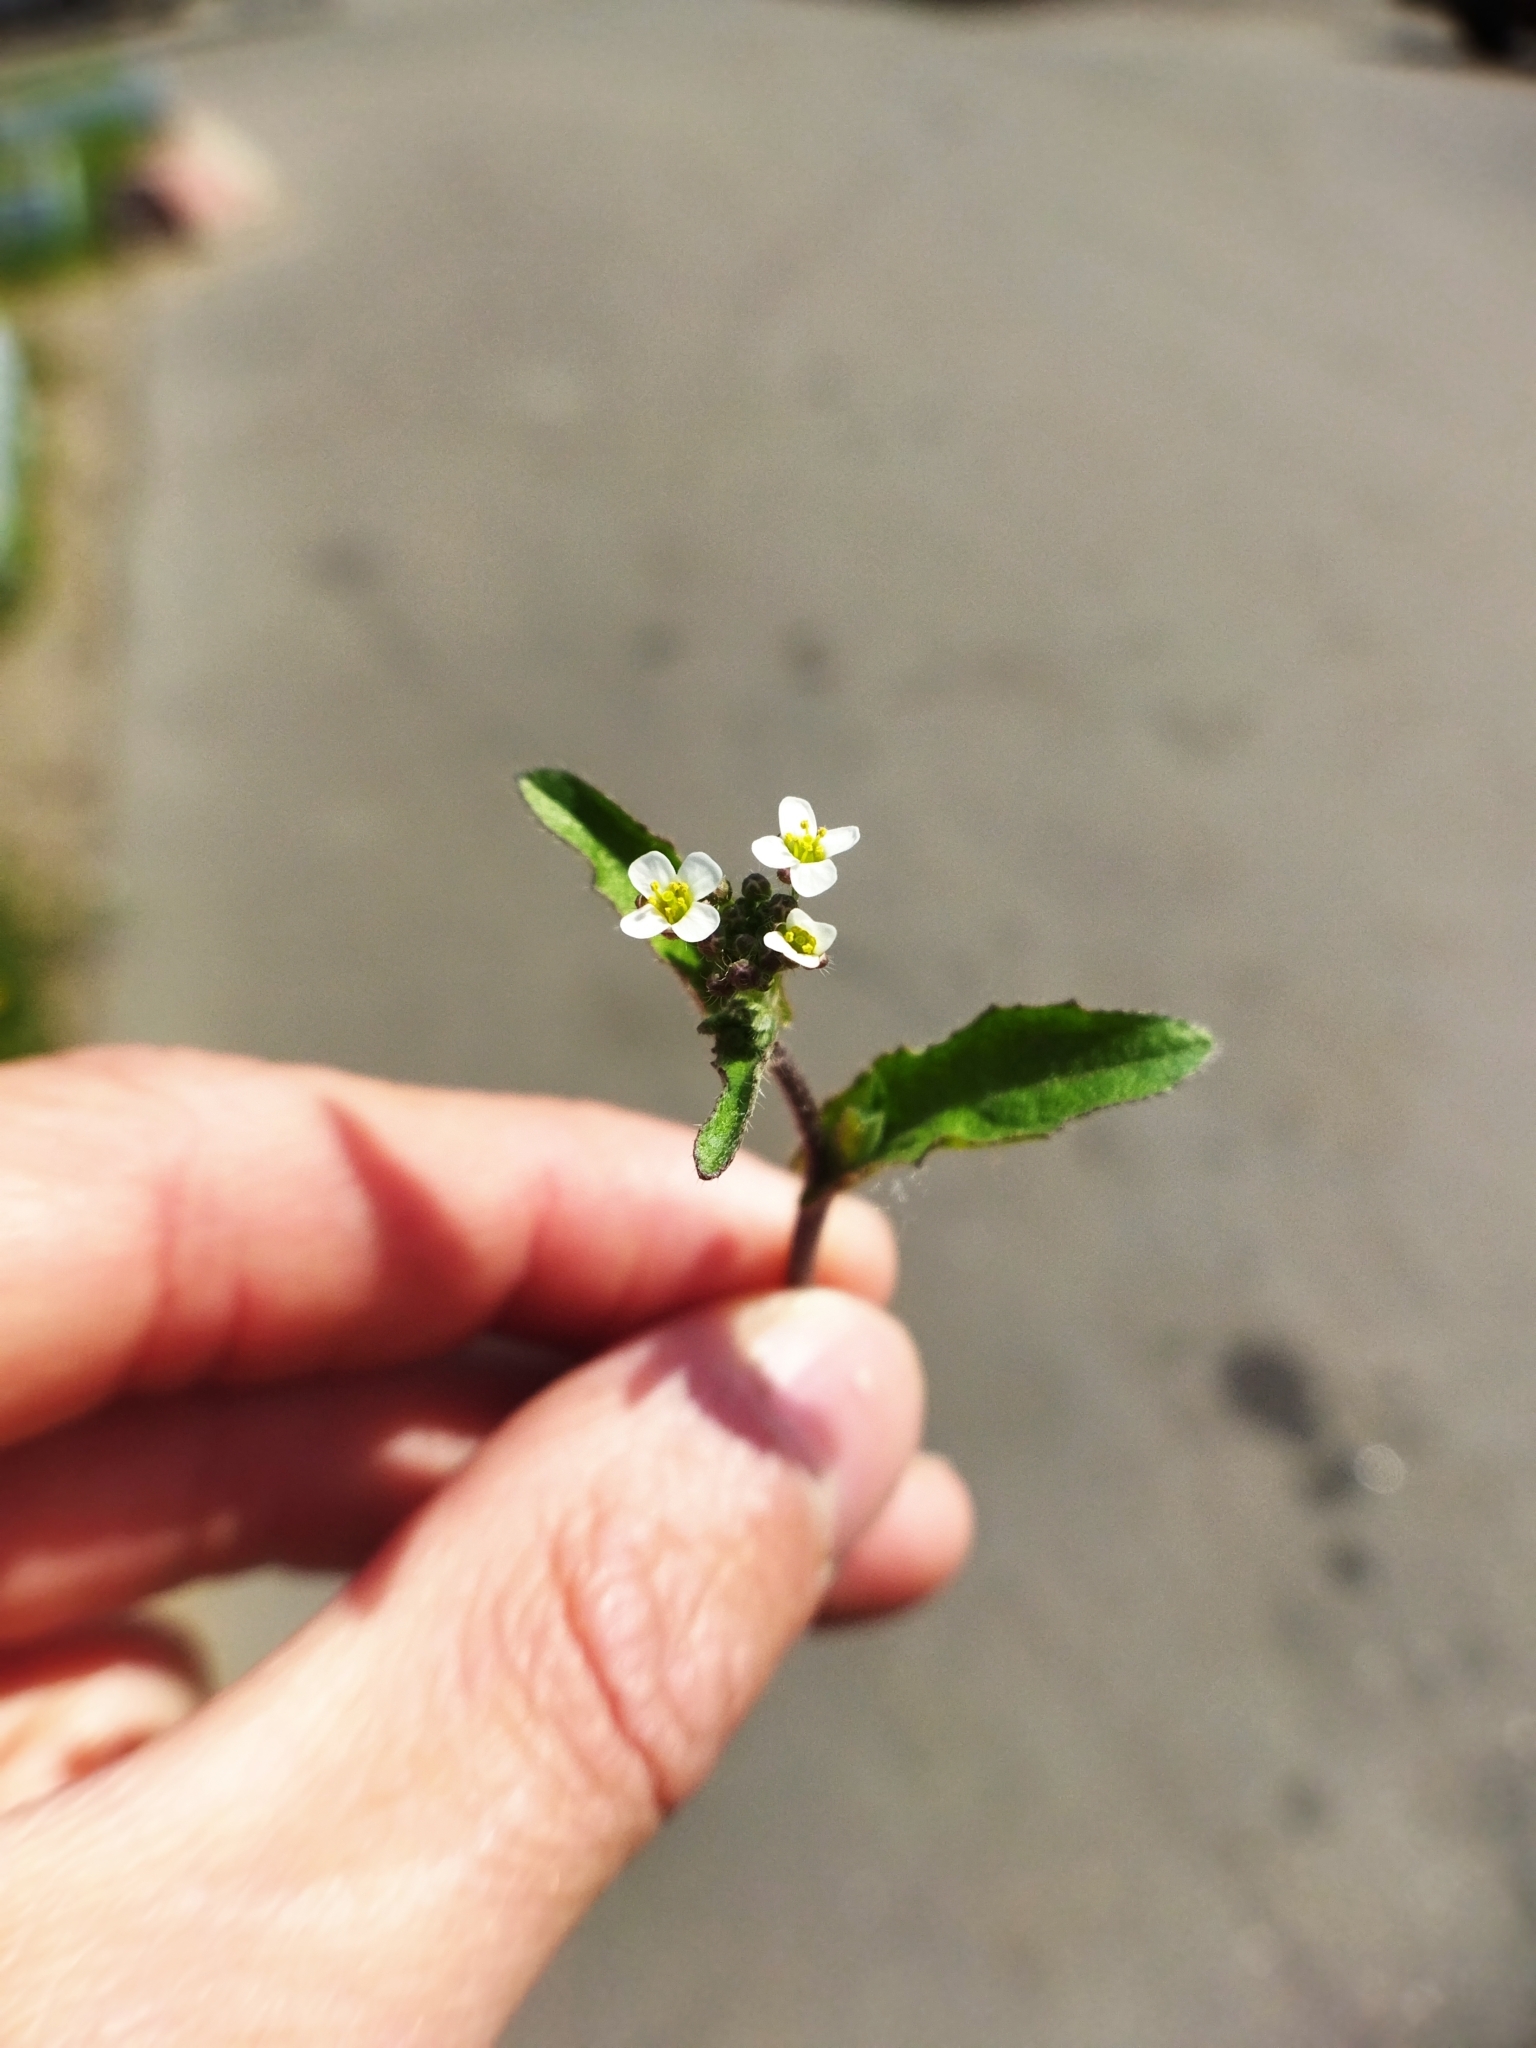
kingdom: Plantae
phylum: Tracheophyta
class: Magnoliopsida
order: Brassicales
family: Brassicaceae
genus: Capsella
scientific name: Capsella bursa-pastoris
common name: Shepherd's purse
